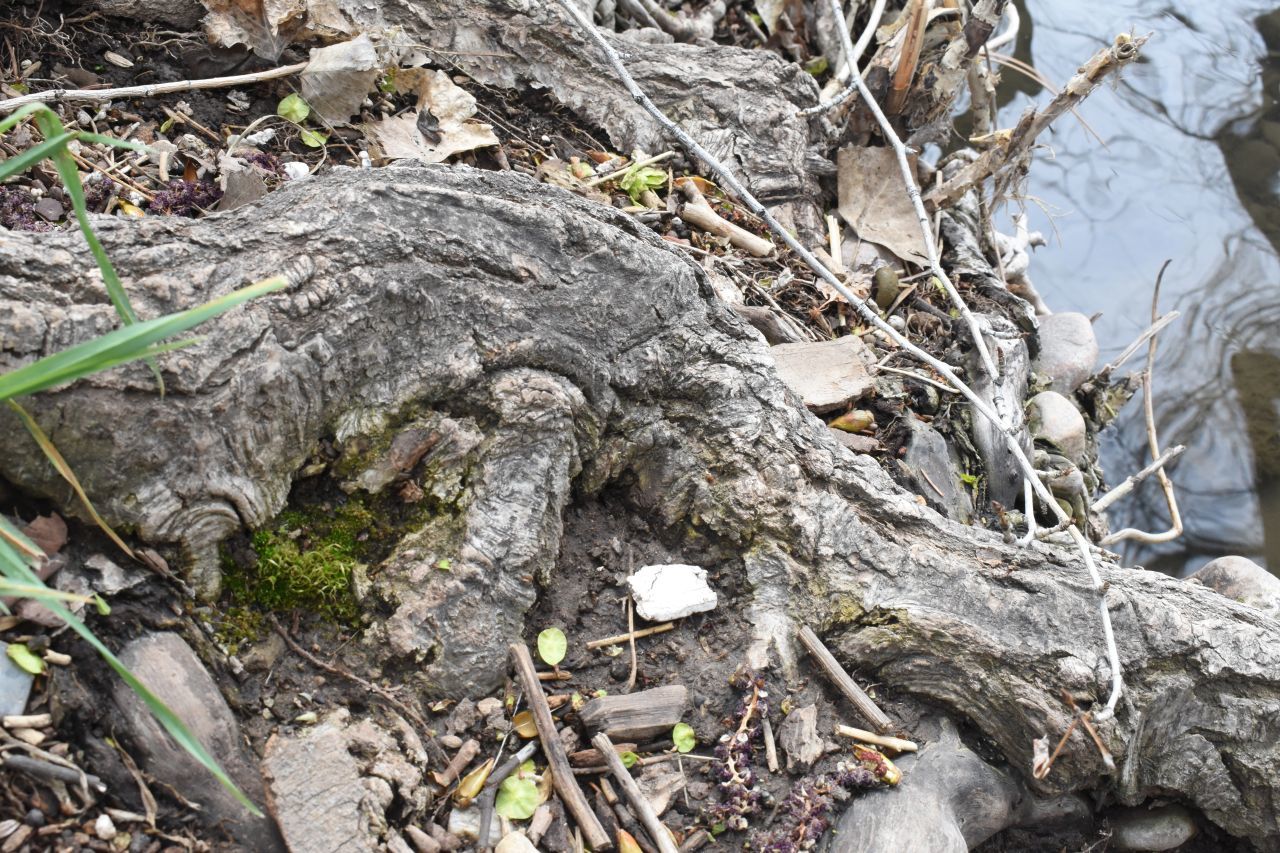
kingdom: Plantae
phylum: Bryophyta
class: Bryopsida
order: Funariales
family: Funariaceae
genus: Funaria
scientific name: Funaria hygrometrica
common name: Common cord moss
